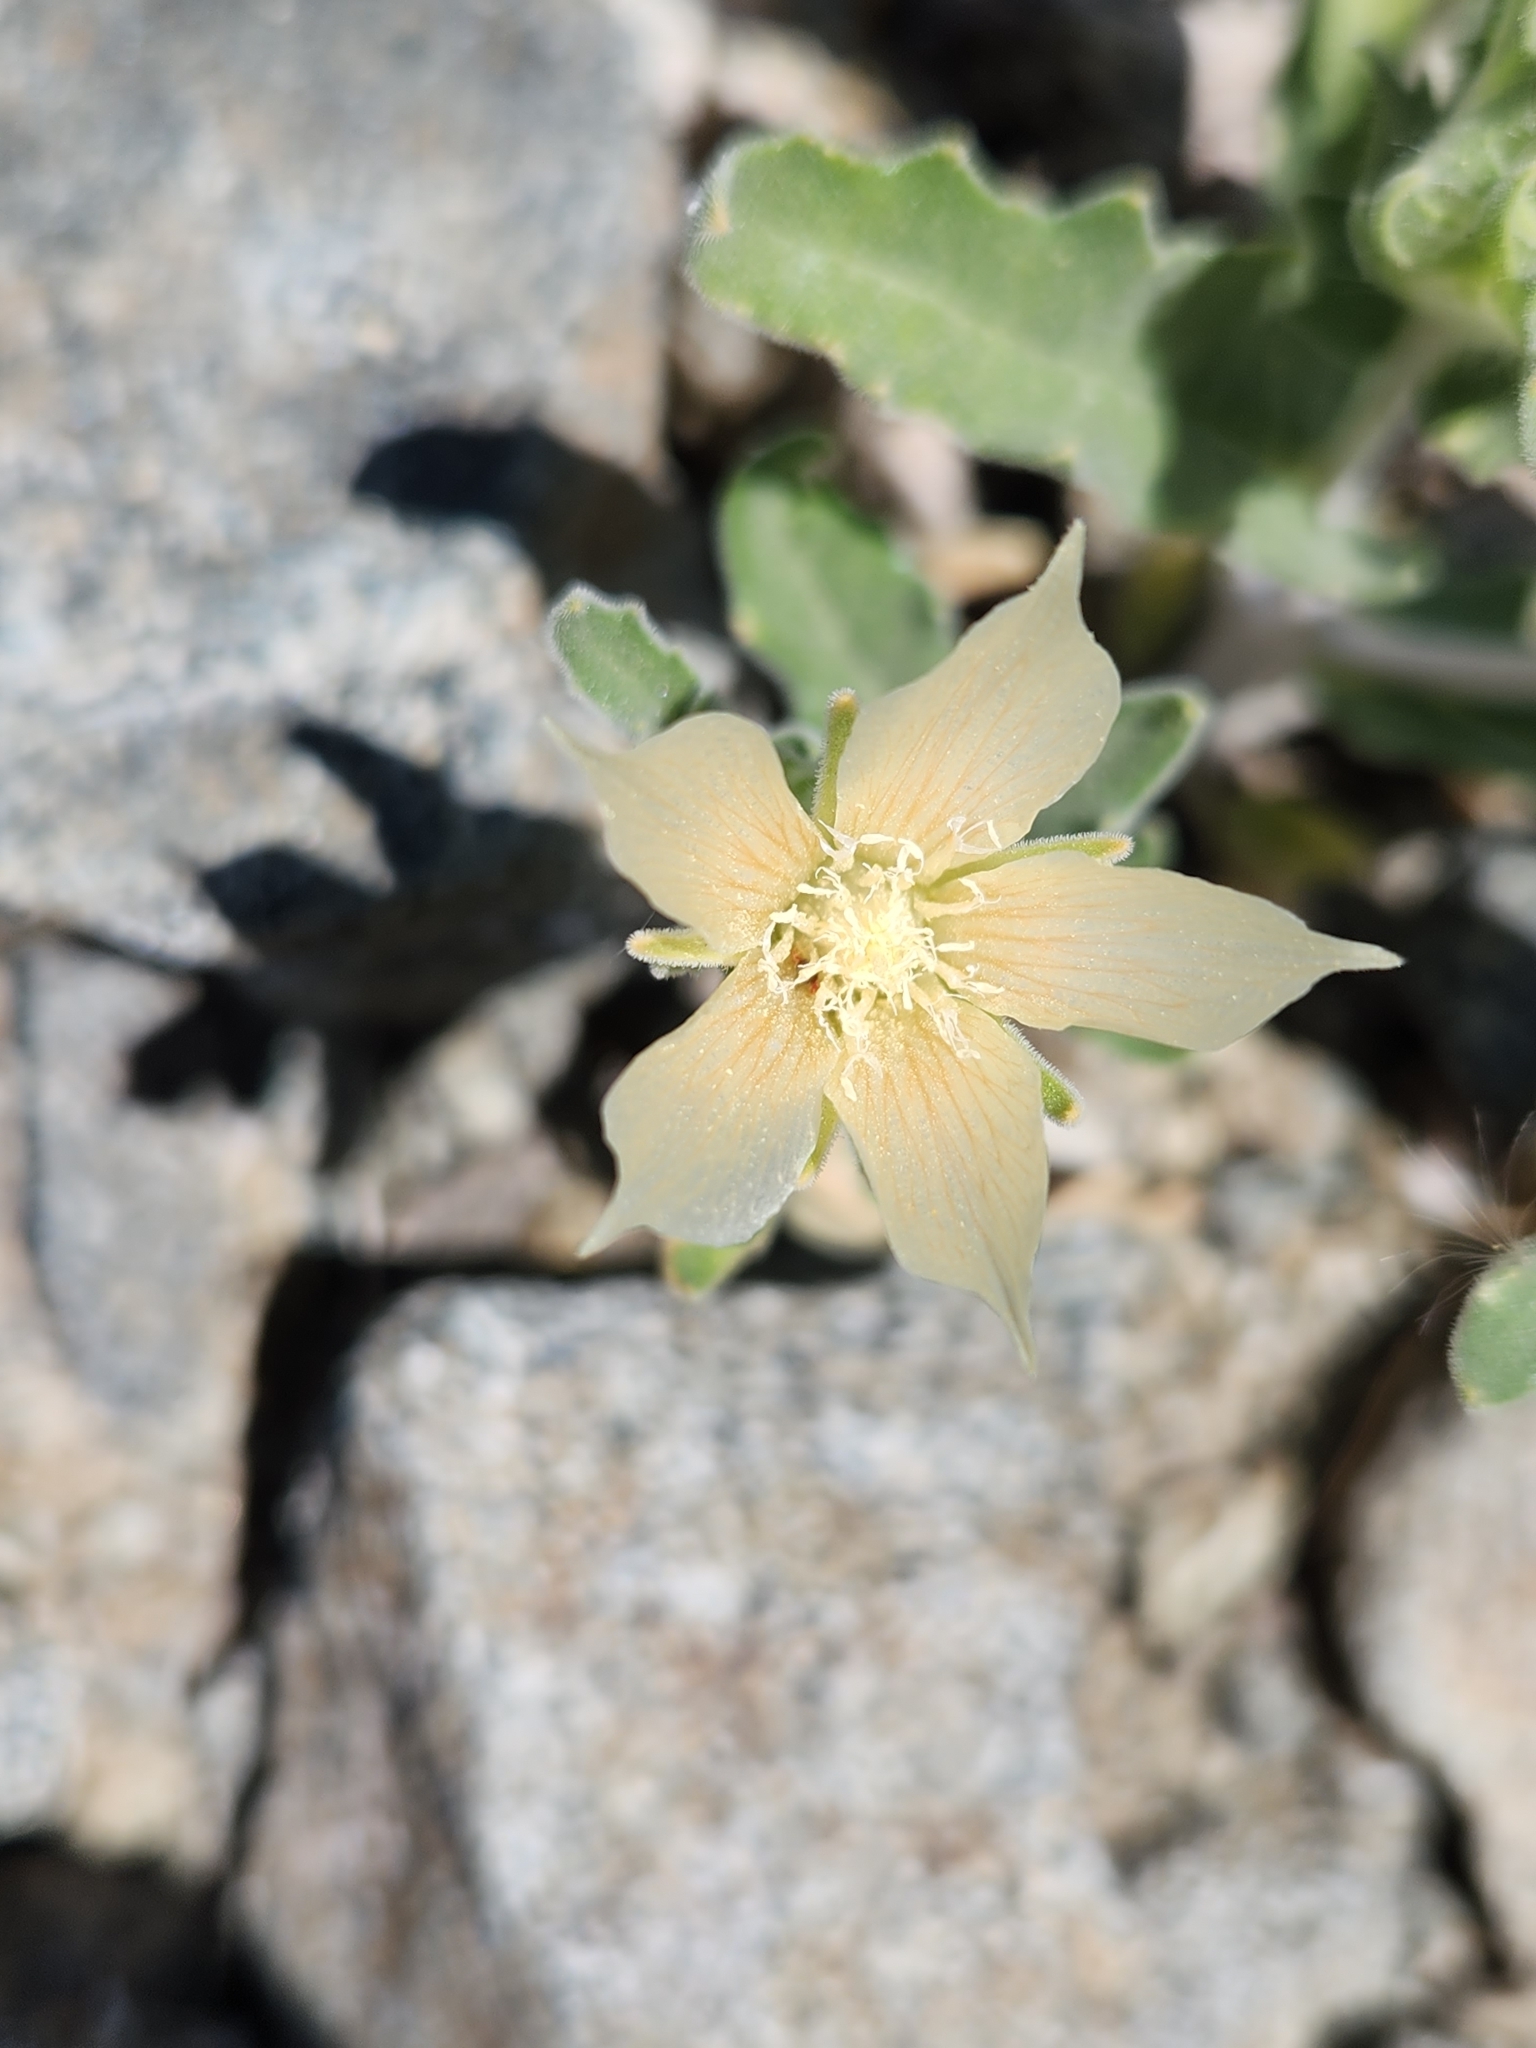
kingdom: Plantae
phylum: Tracheophyta
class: Magnoliopsida
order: Cornales
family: Loasaceae
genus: Mentzelia
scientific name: Mentzelia involucrata
